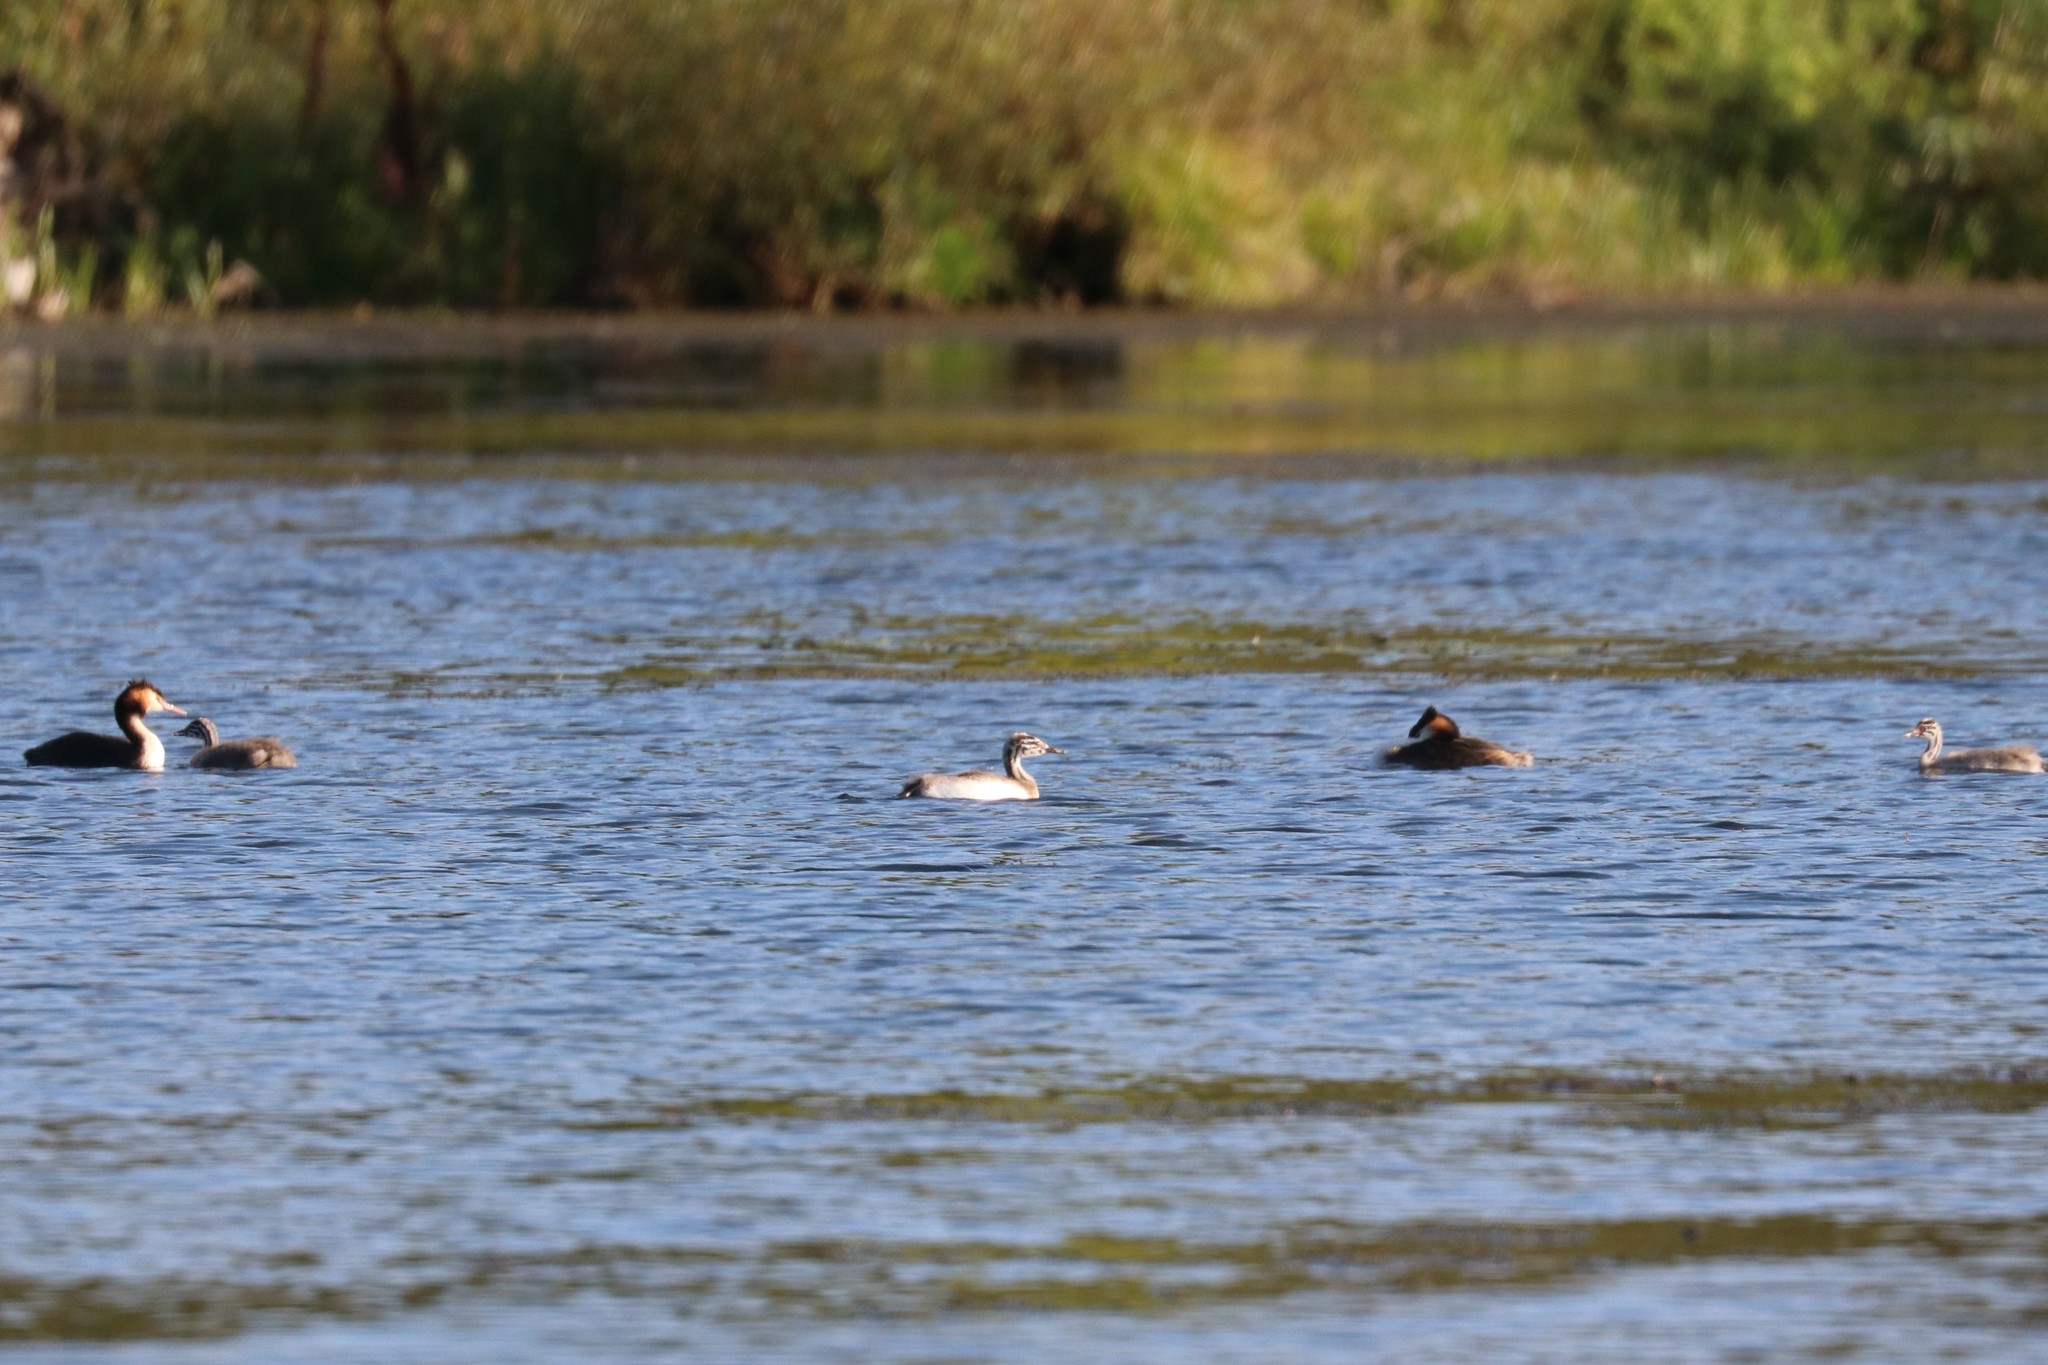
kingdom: Animalia
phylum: Chordata
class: Aves
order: Podicipediformes
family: Podicipedidae
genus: Podiceps
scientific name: Podiceps cristatus
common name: Great crested grebe
